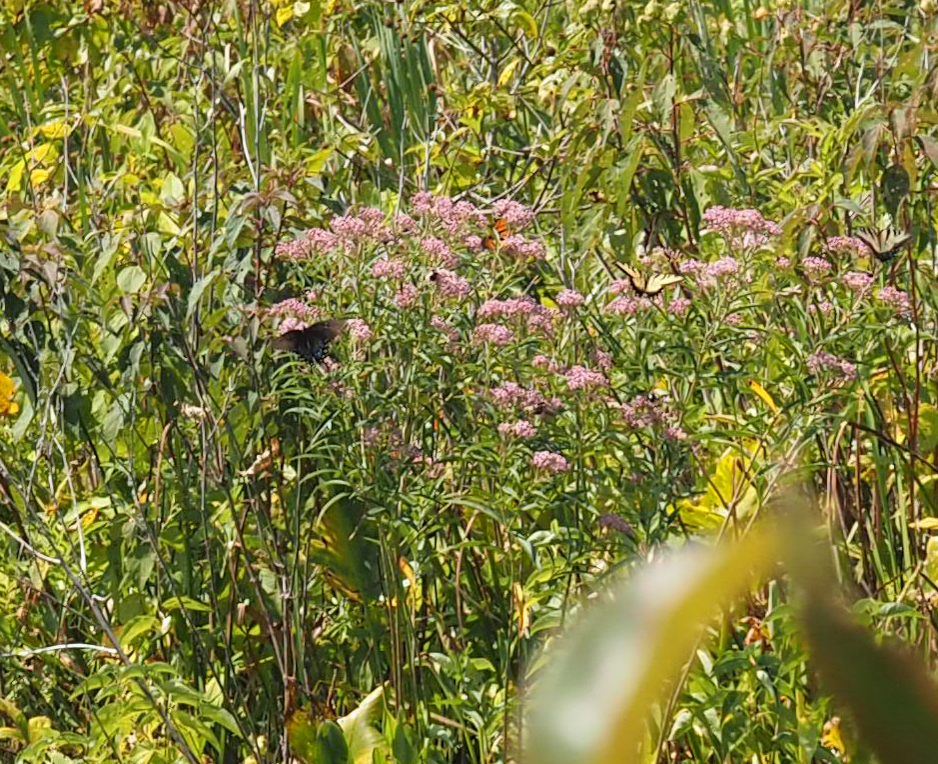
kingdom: Plantae
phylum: Tracheophyta
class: Magnoliopsida
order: Gentianales
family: Apocynaceae
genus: Asclepias
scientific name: Asclepias incarnata
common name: Swamp milkweed
